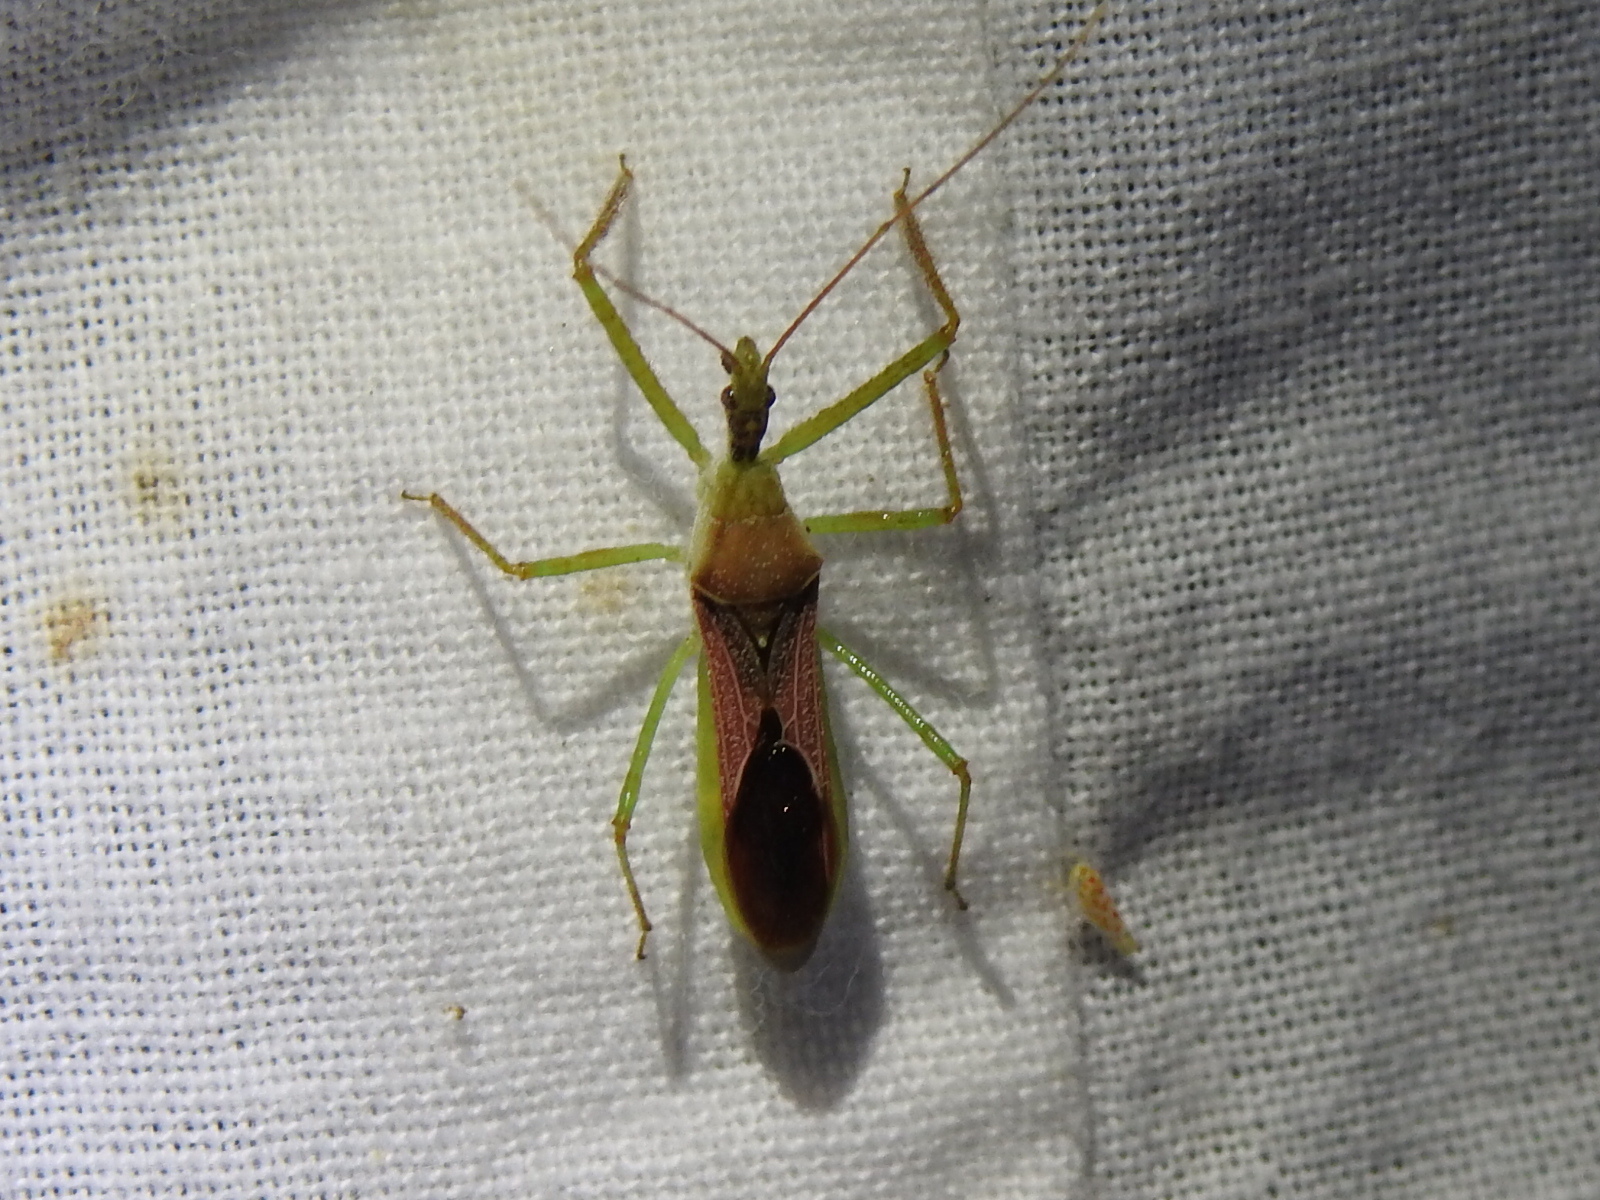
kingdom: Animalia
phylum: Arthropoda
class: Insecta
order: Hemiptera
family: Reduviidae
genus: Zelus
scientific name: Zelus renardii
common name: Assassin bug
